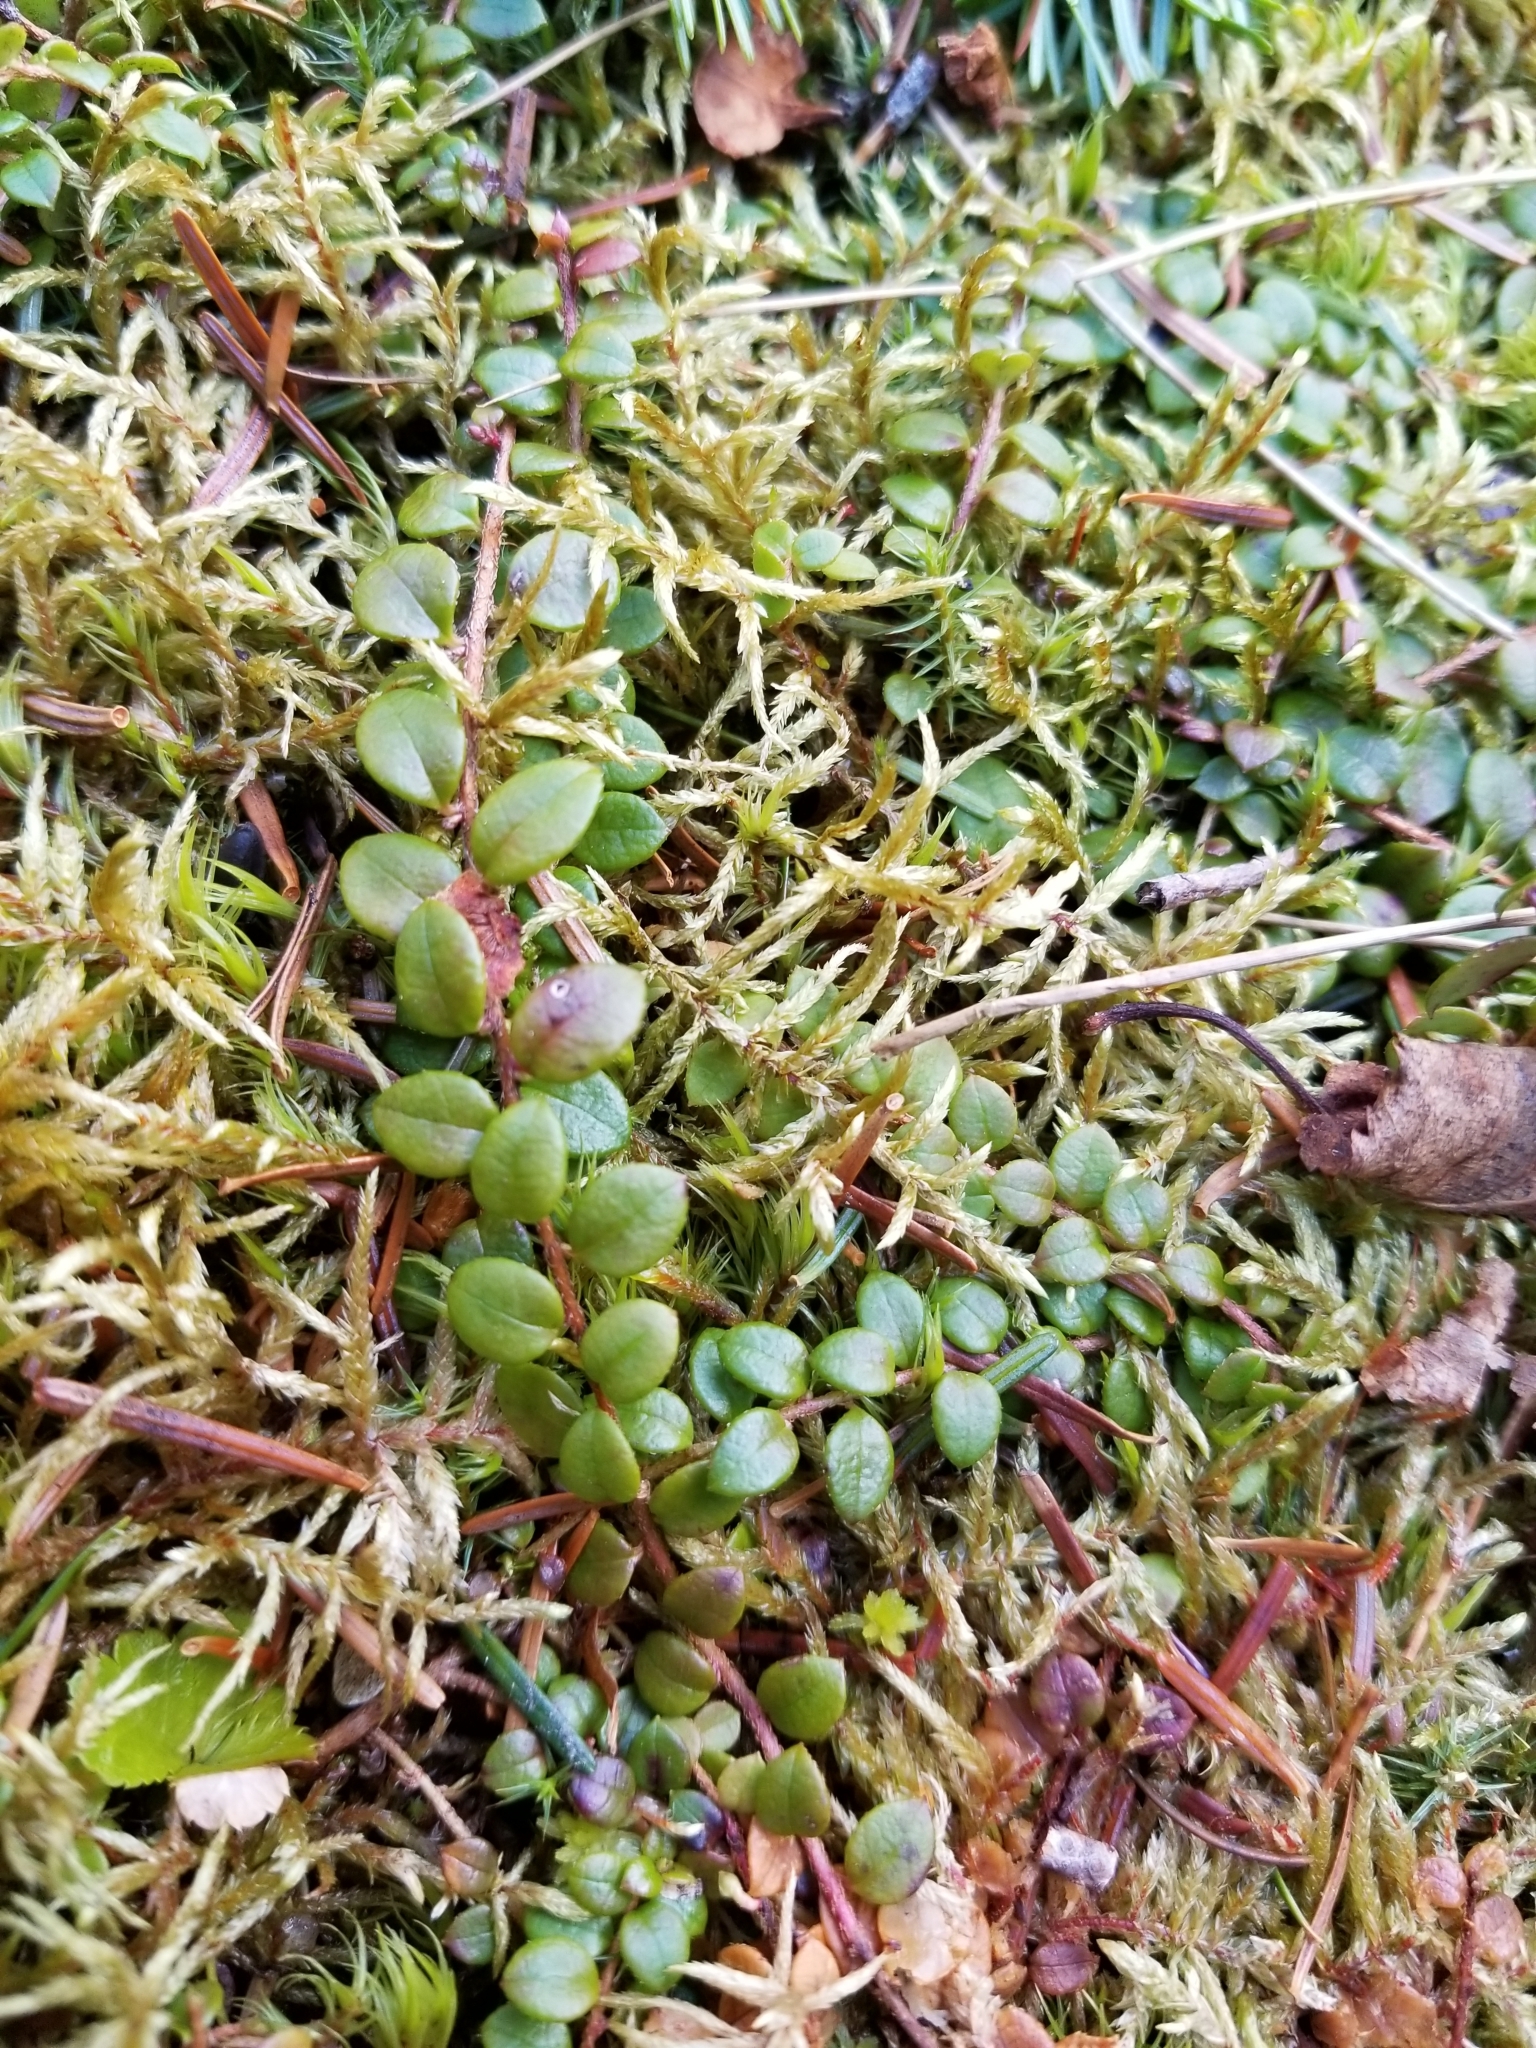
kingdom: Plantae
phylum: Tracheophyta
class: Magnoliopsida
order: Ericales
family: Ericaceae
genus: Gaultheria
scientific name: Gaultheria hispidula
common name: Cancer wintergreen
